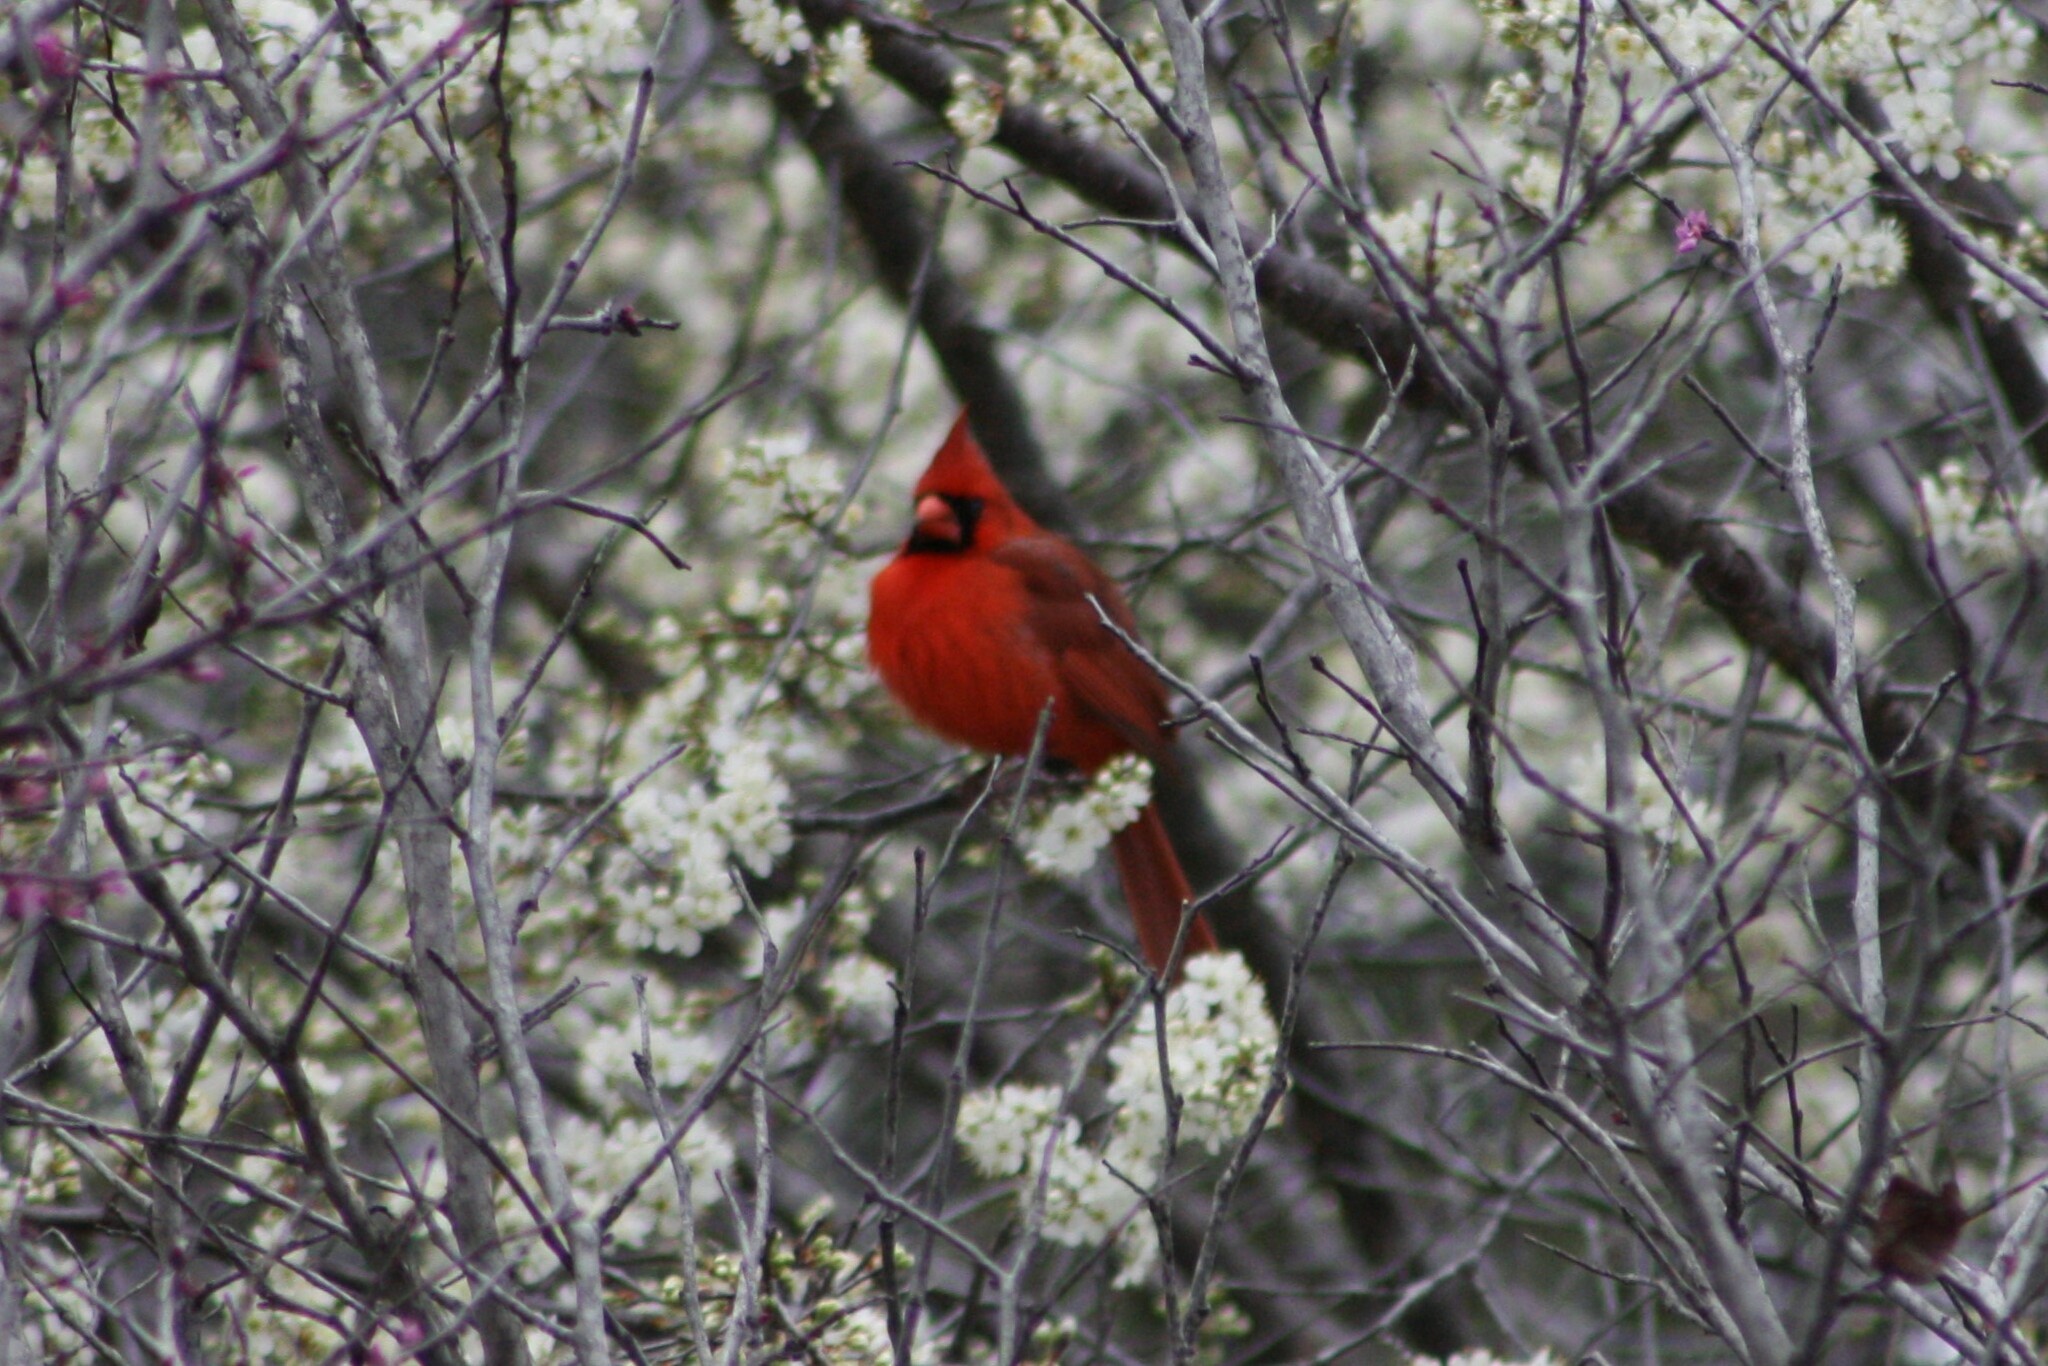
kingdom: Animalia
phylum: Chordata
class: Aves
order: Passeriformes
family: Cardinalidae
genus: Cardinalis
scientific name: Cardinalis cardinalis
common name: Northern cardinal
